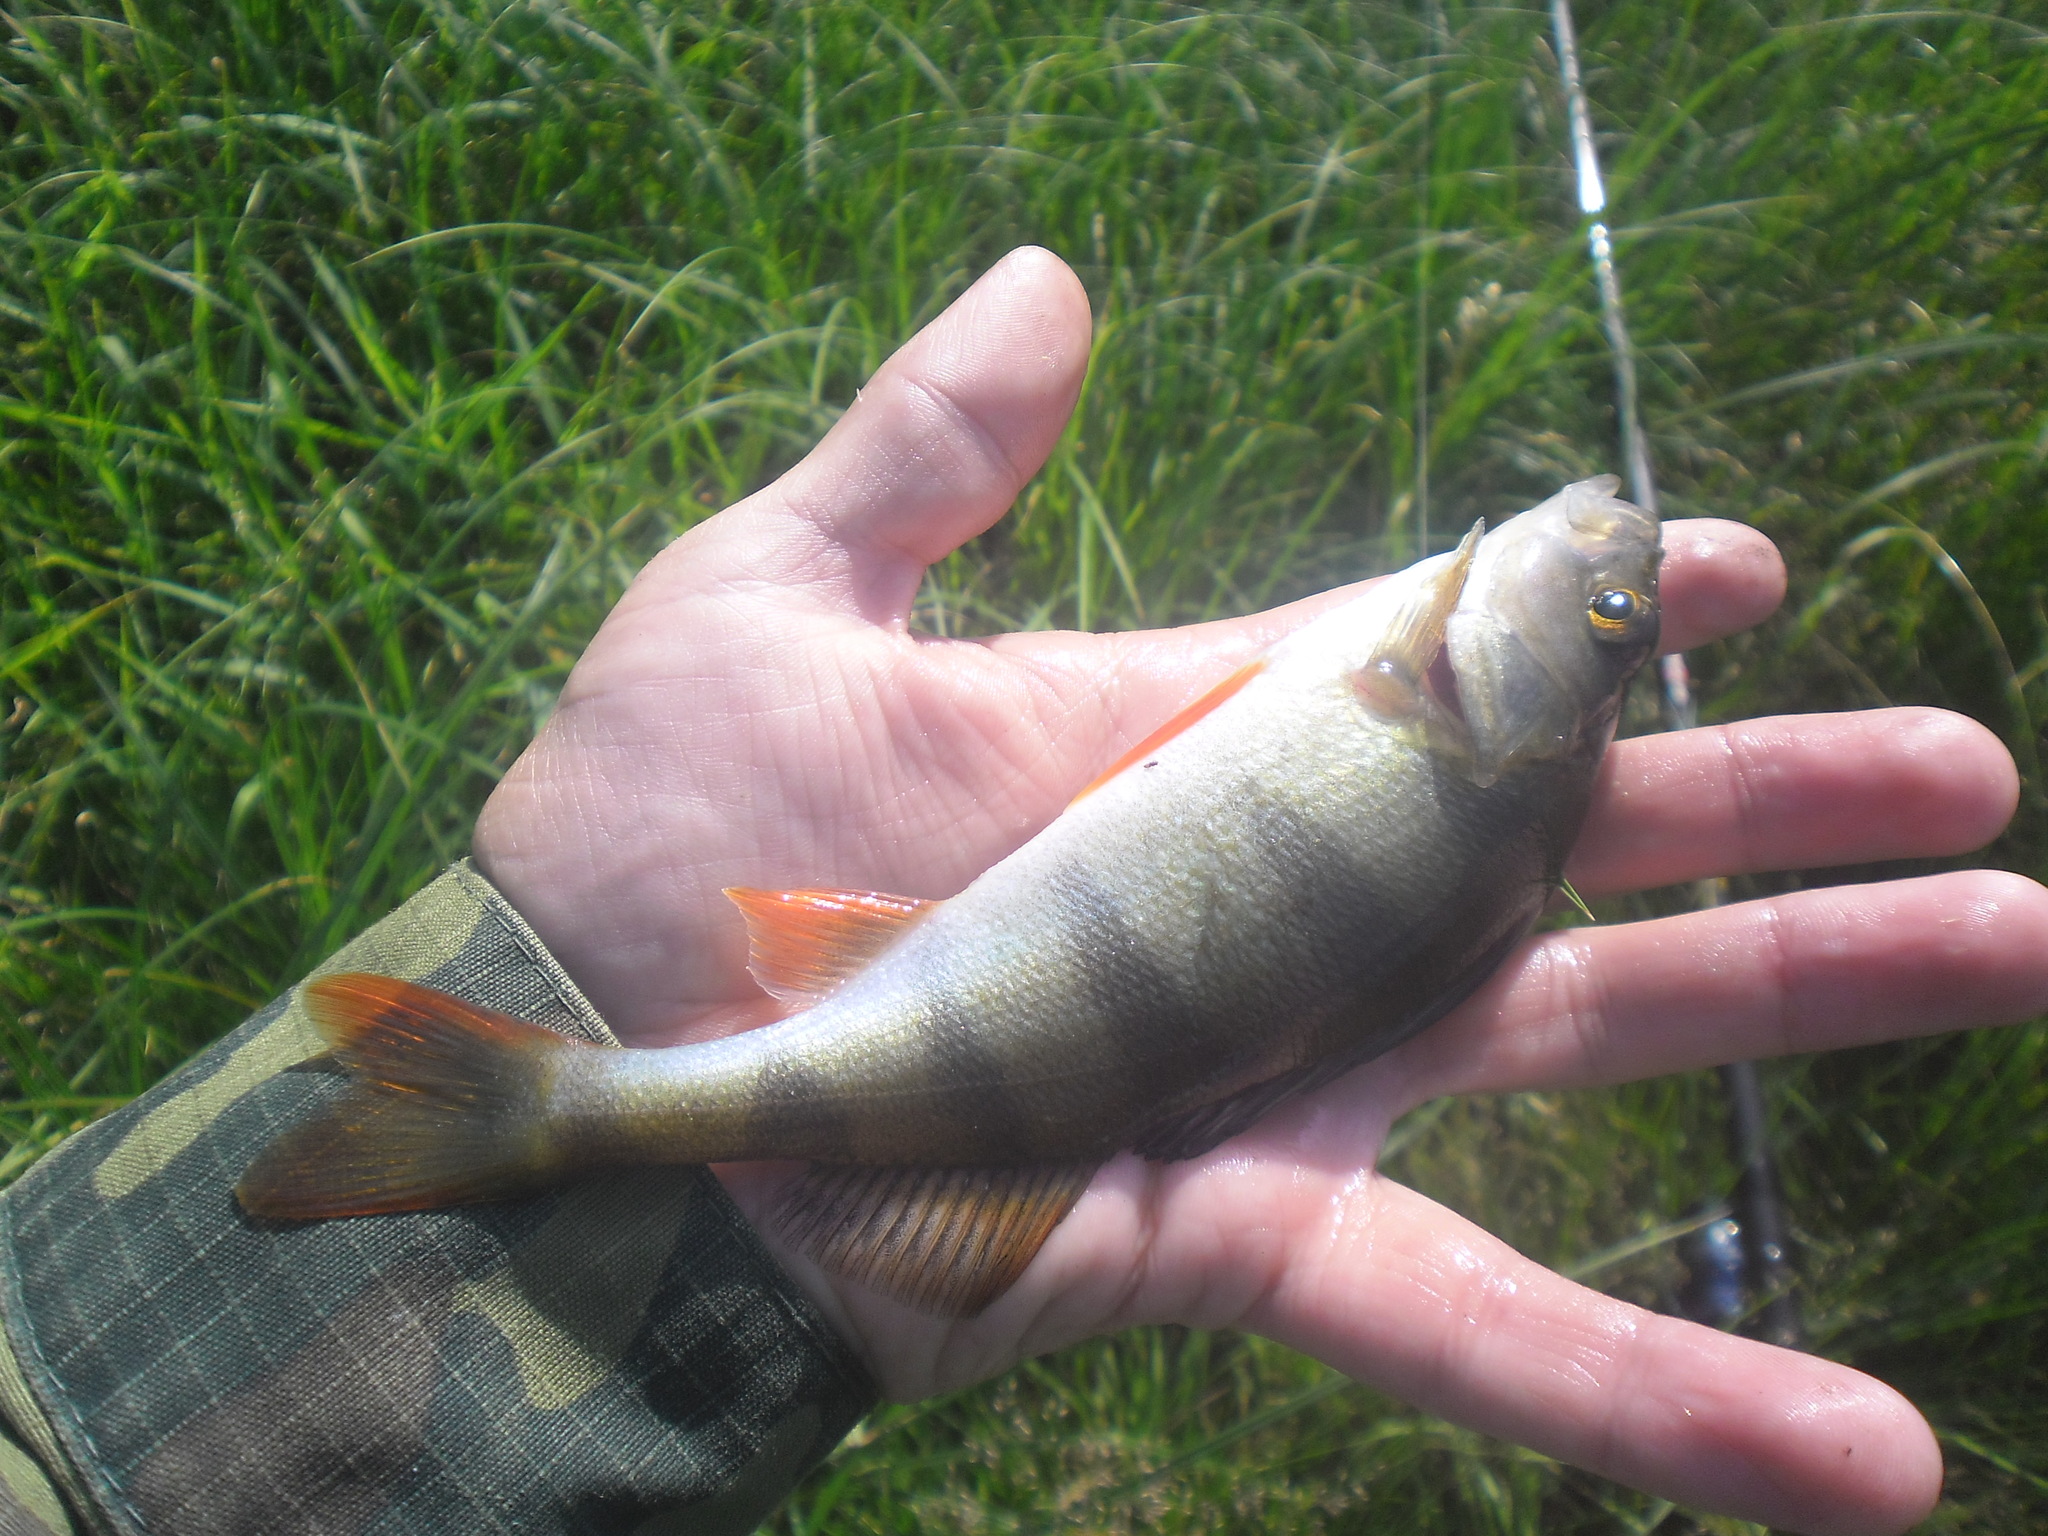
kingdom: Animalia
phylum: Chordata
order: Perciformes
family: Percidae
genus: Perca
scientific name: Perca fluviatilis
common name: Perch
